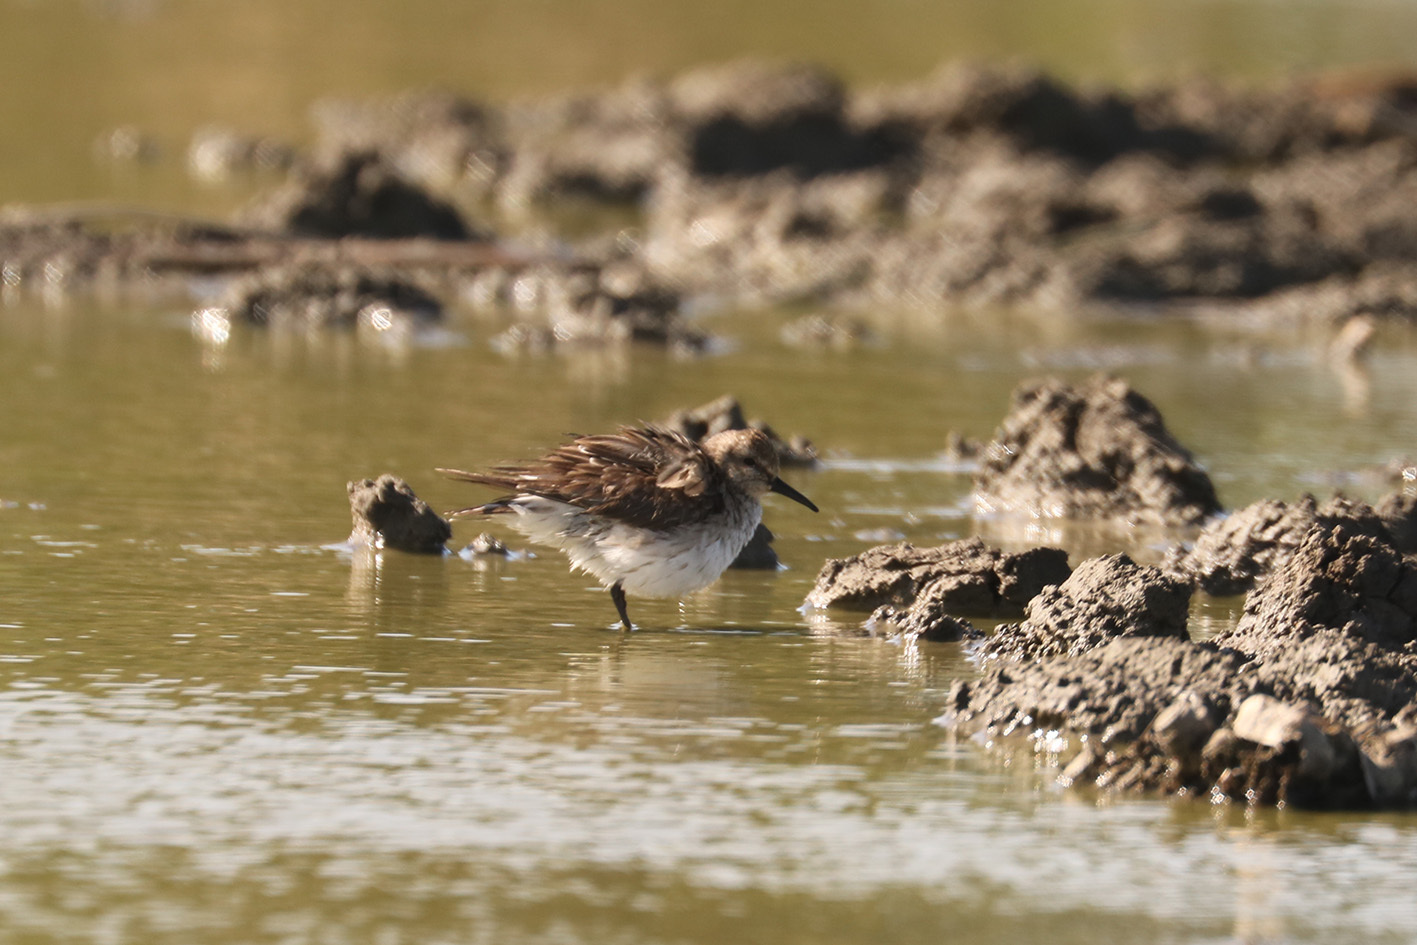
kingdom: Animalia
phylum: Chordata
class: Aves
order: Charadriiformes
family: Scolopacidae
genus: Calidris
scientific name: Calidris fuscicollis
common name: White-rumped sandpiper
